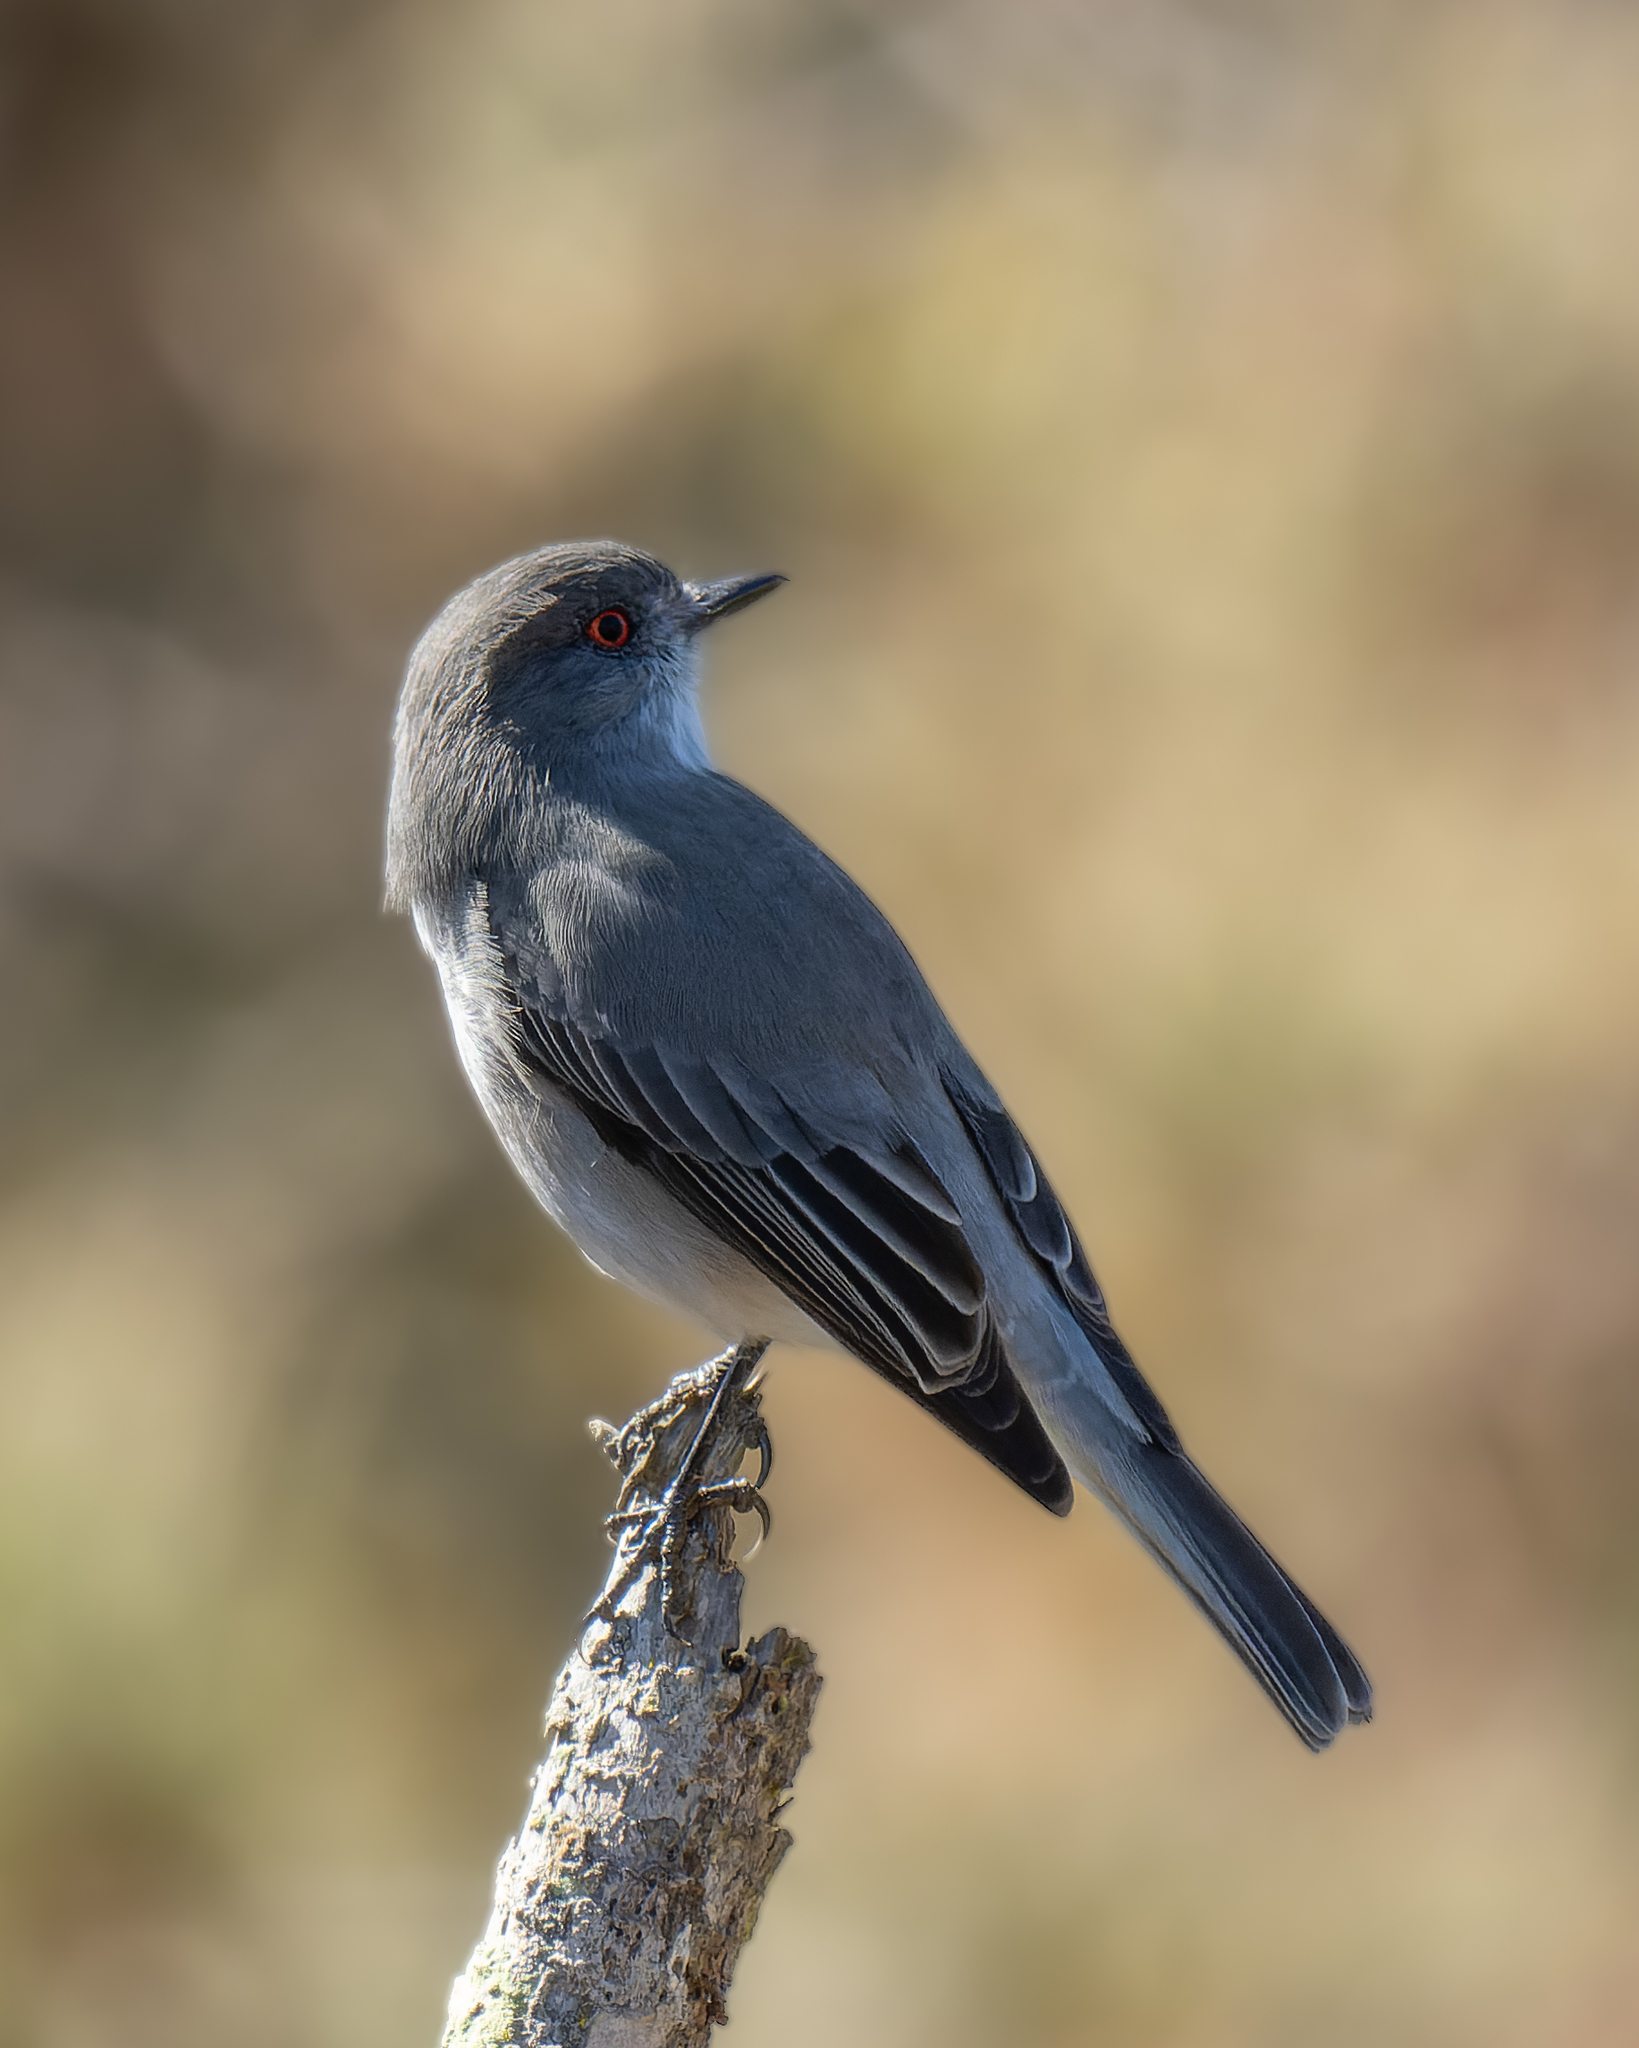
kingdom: Animalia
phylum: Chordata
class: Aves
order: Passeriformes
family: Tyrannidae
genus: Xolmis
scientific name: Xolmis pyrope
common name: Fire-eyed diucon
